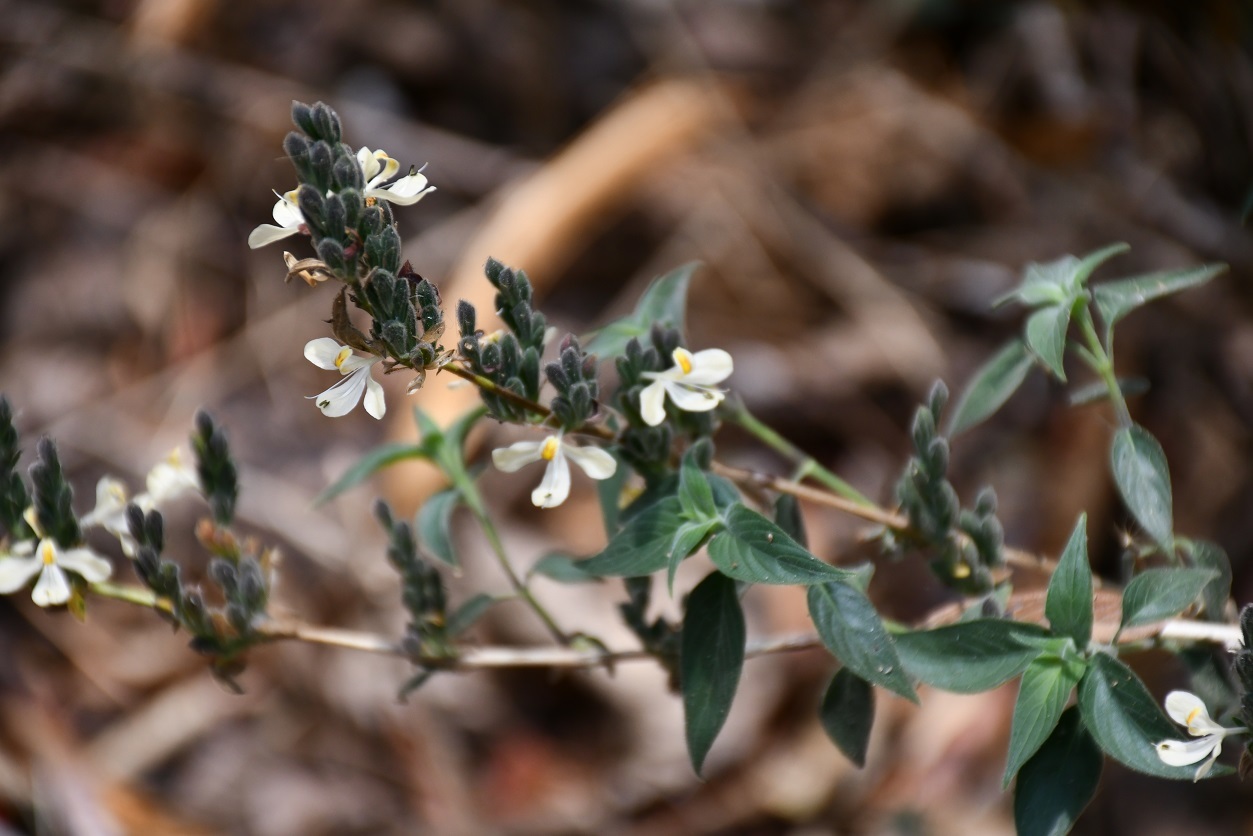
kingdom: Plantae
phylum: Tracheophyta
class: Magnoliopsida
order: Lamiales
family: Acanthaceae
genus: Henrya
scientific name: Henrya insularis
